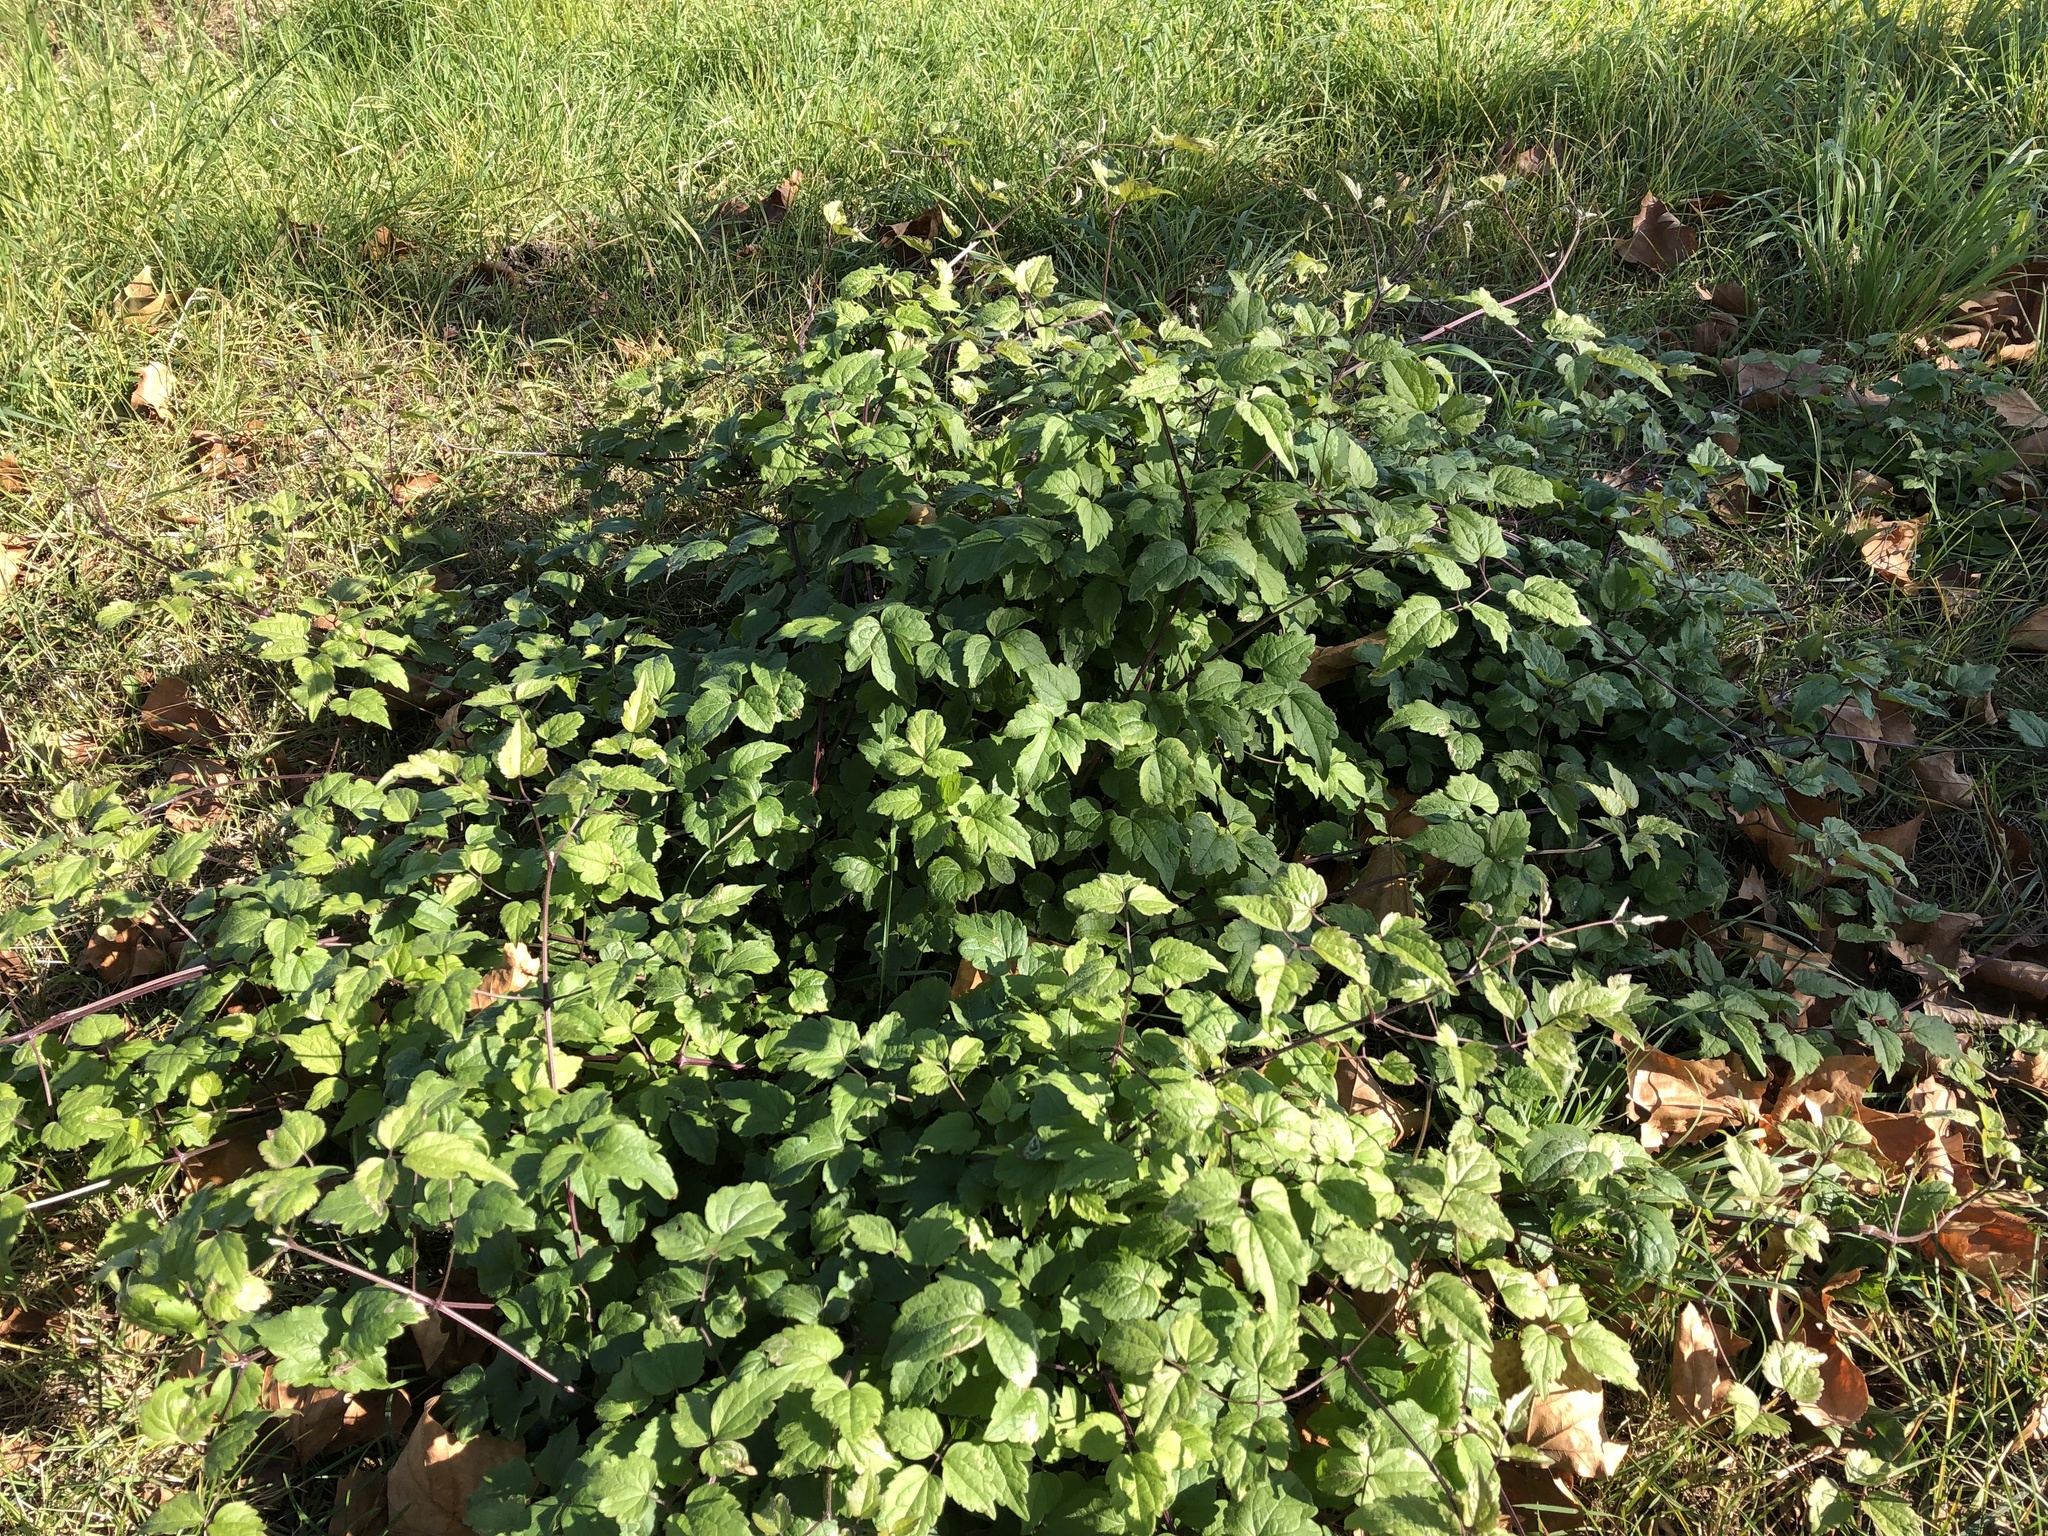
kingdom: Plantae
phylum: Tracheophyta
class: Magnoliopsida
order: Ranunculales
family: Ranunculaceae
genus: Clematis
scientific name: Clematis vitalba
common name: Evergreen clematis
